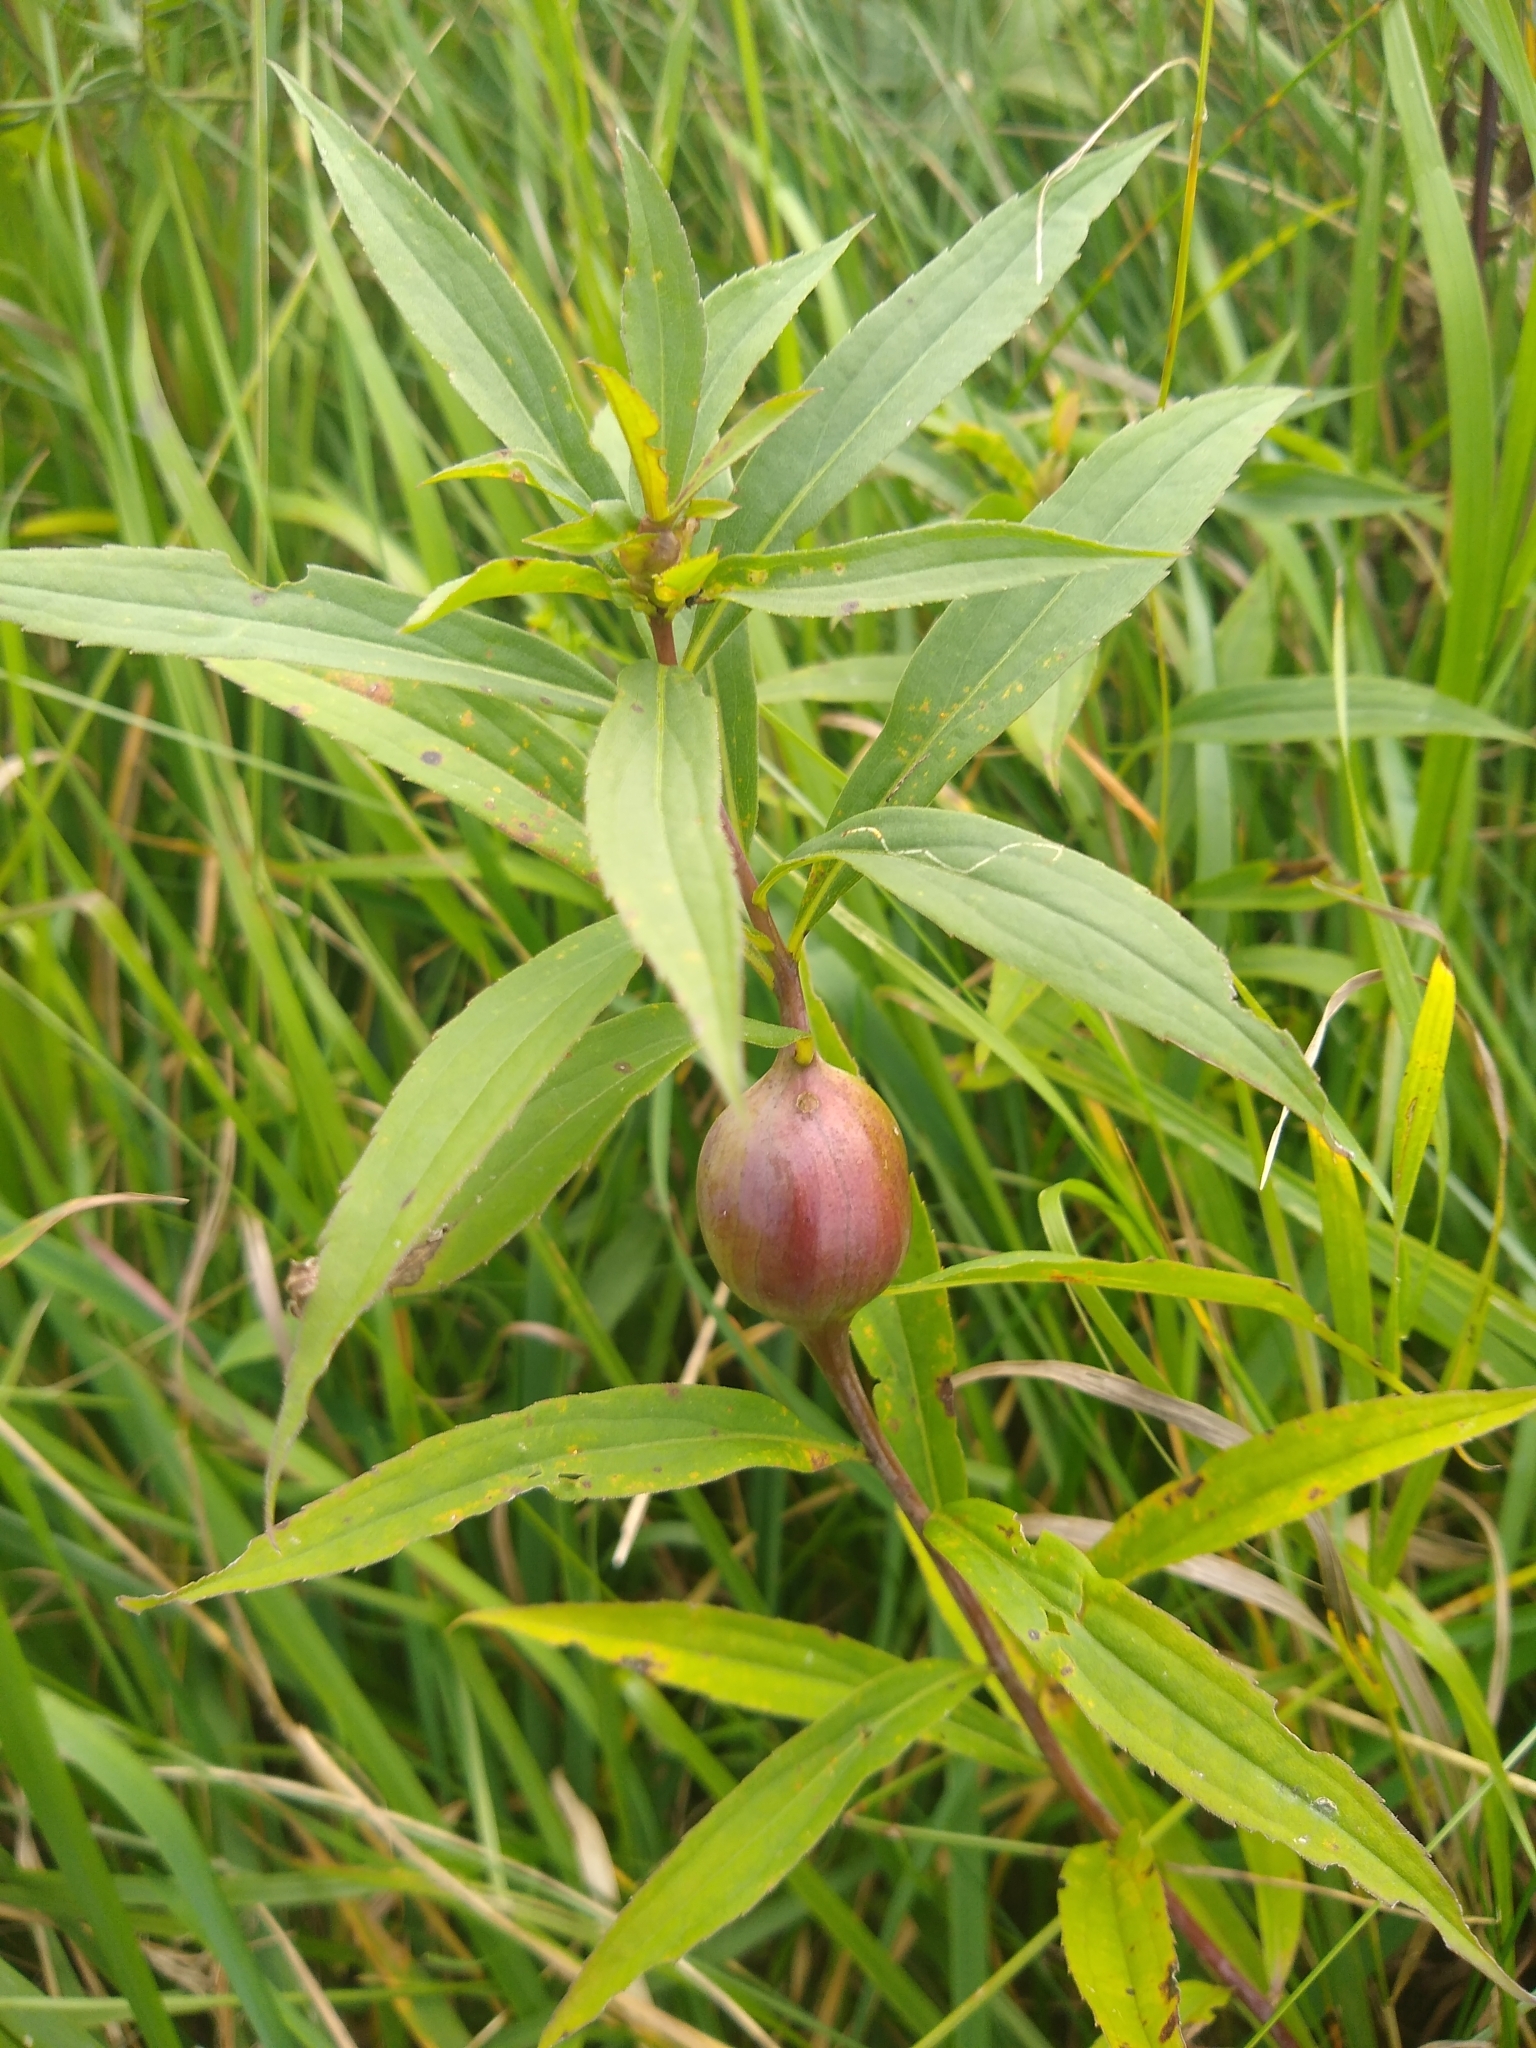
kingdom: Animalia
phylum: Arthropoda
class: Insecta
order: Diptera
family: Tephritidae
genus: Eurosta
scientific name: Eurosta solidaginis
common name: Goldenrod gall fly
